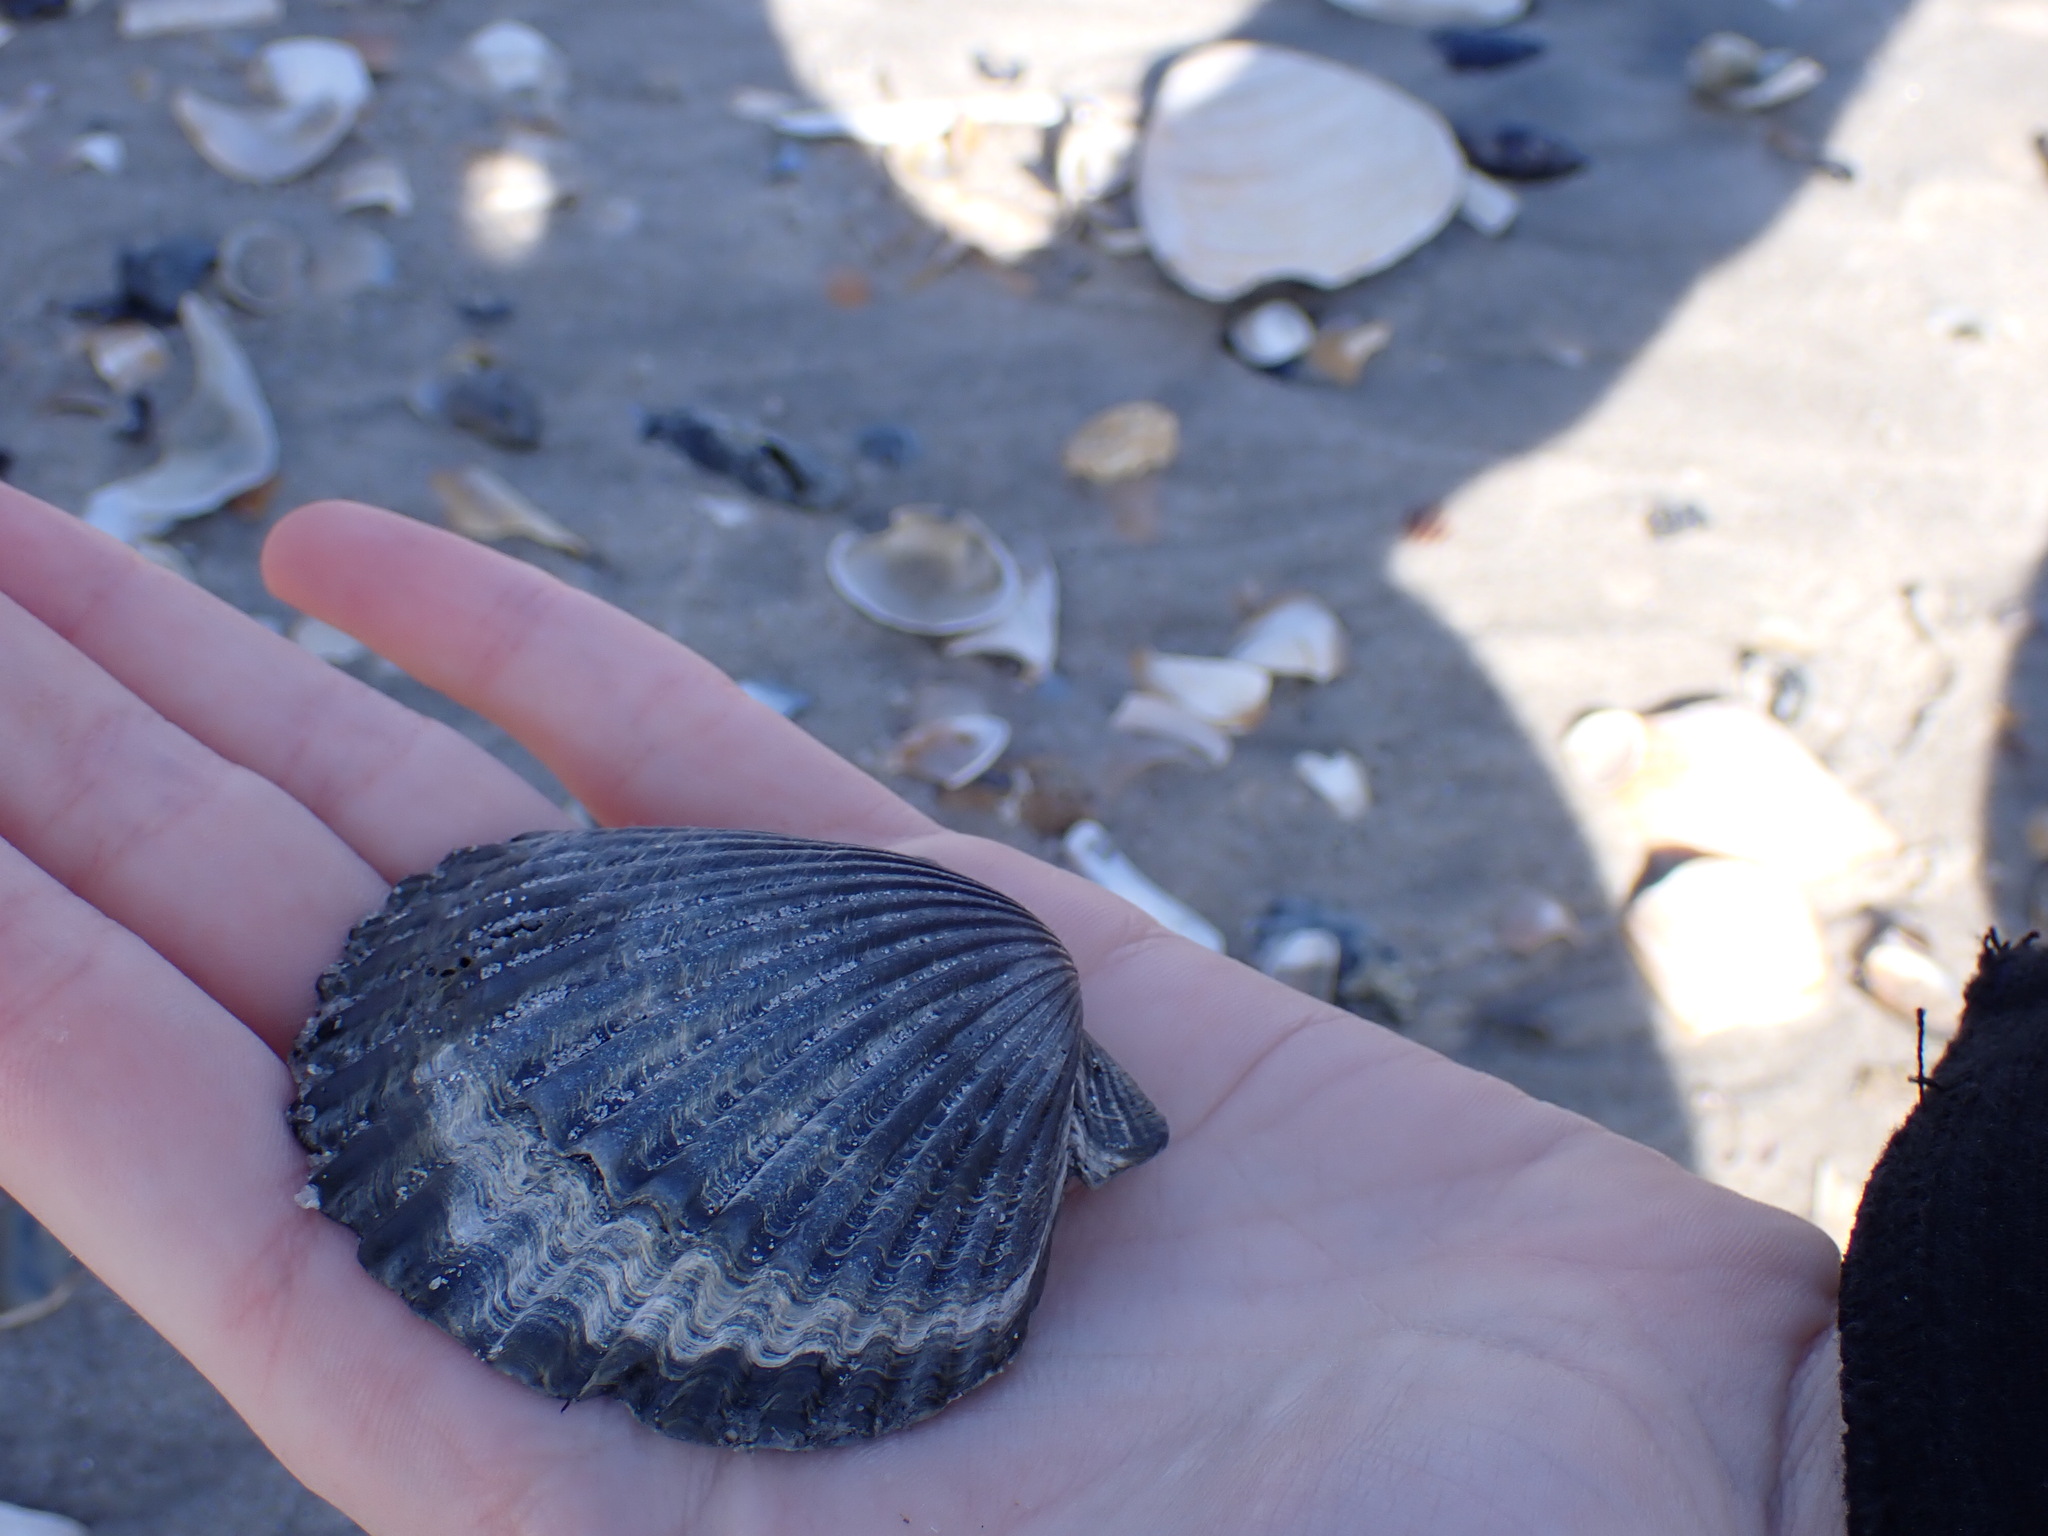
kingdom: Animalia
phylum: Mollusca
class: Bivalvia
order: Pectinida
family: Pectinidae
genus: Argopecten
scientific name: Argopecten irradians
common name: Atlantic bay scallop
